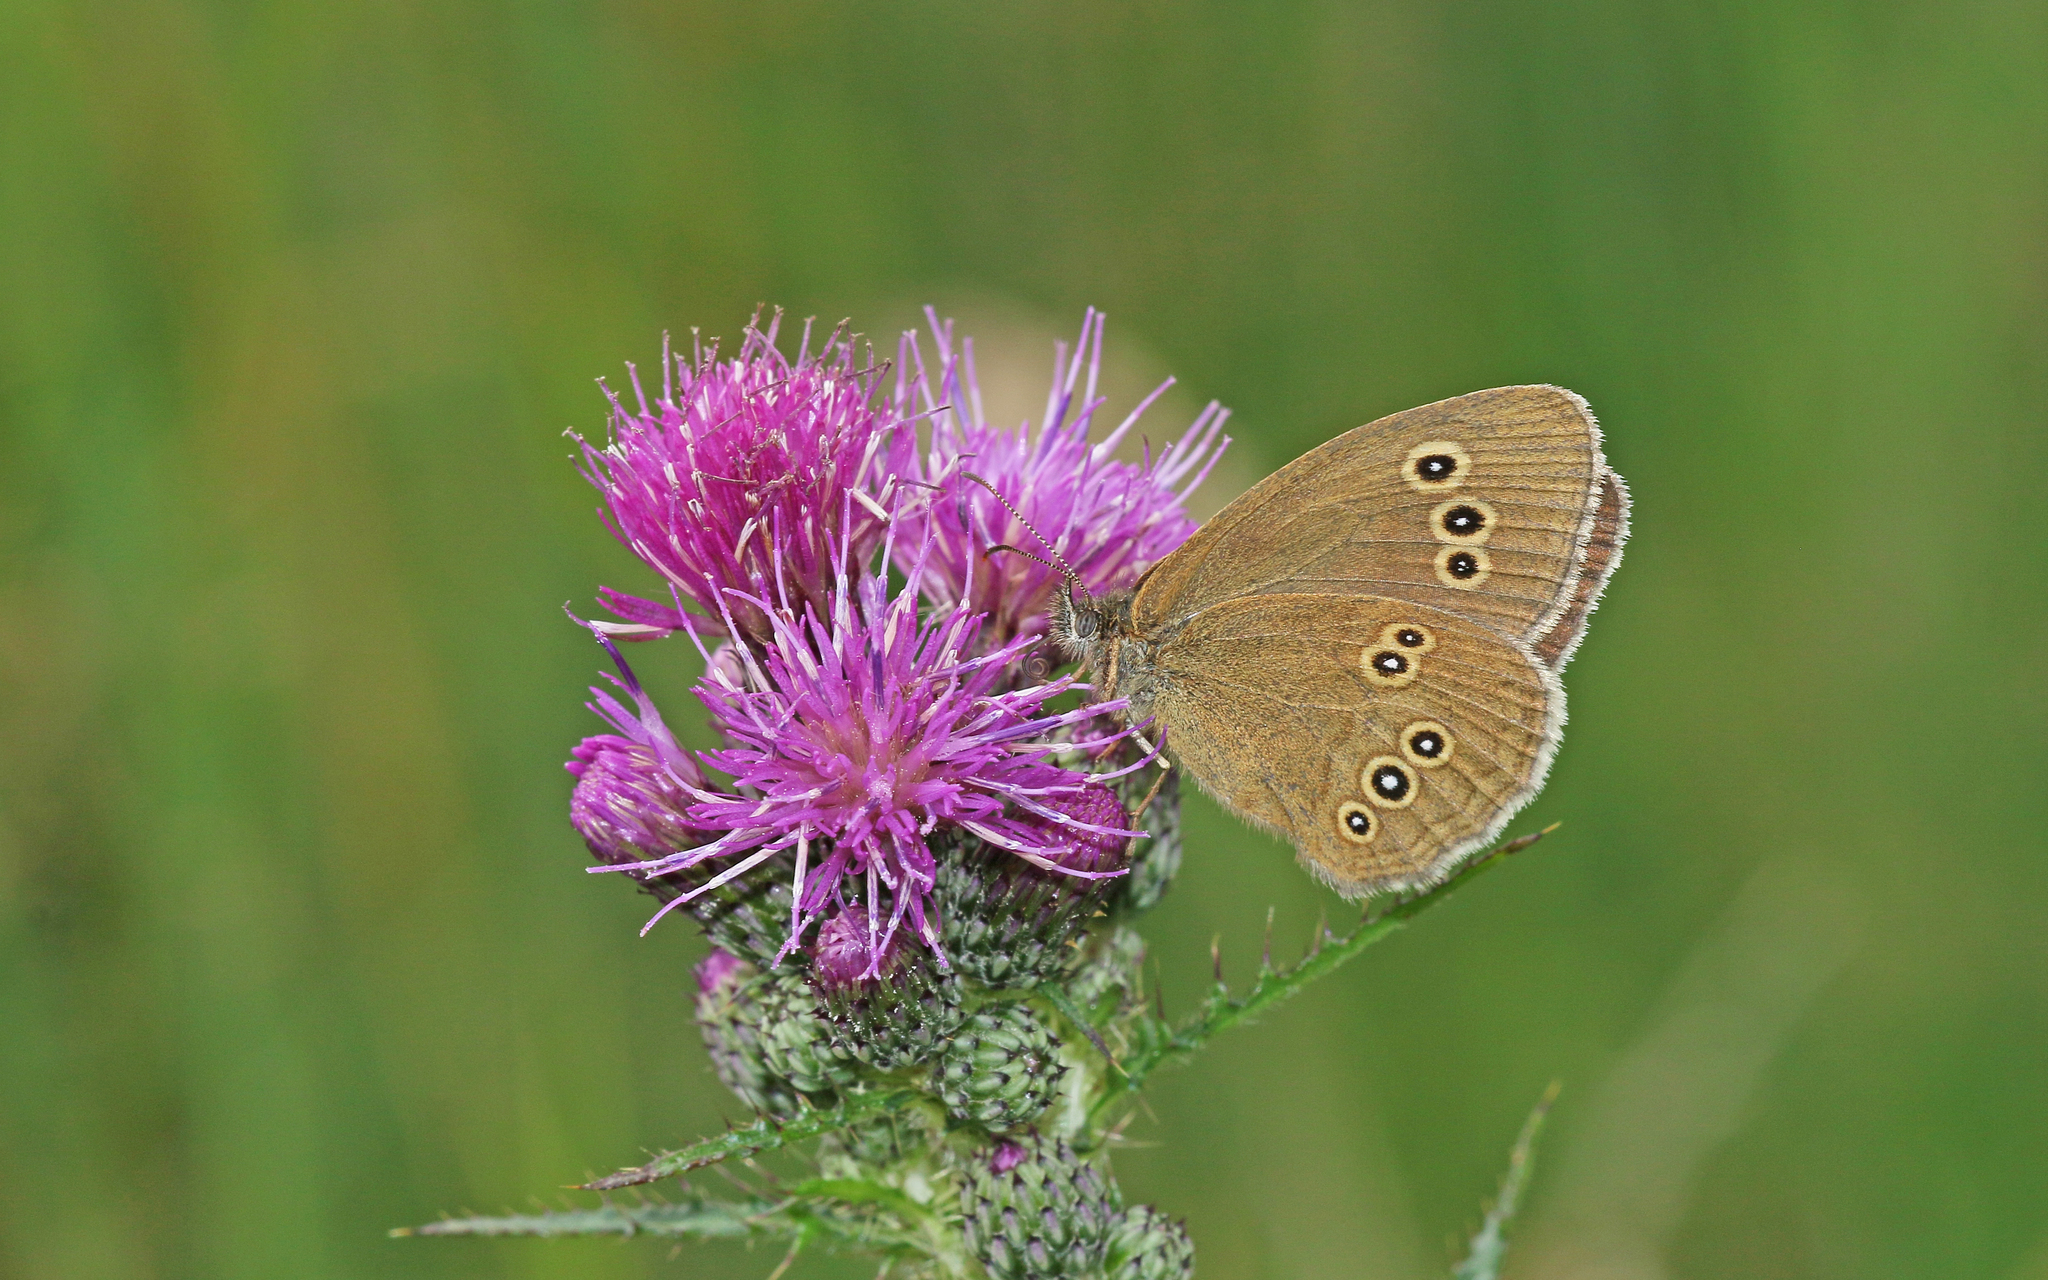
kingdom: Animalia
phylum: Arthropoda
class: Insecta
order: Lepidoptera
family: Nymphalidae
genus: Aphantopus
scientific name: Aphantopus hyperantus
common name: Ringlet
